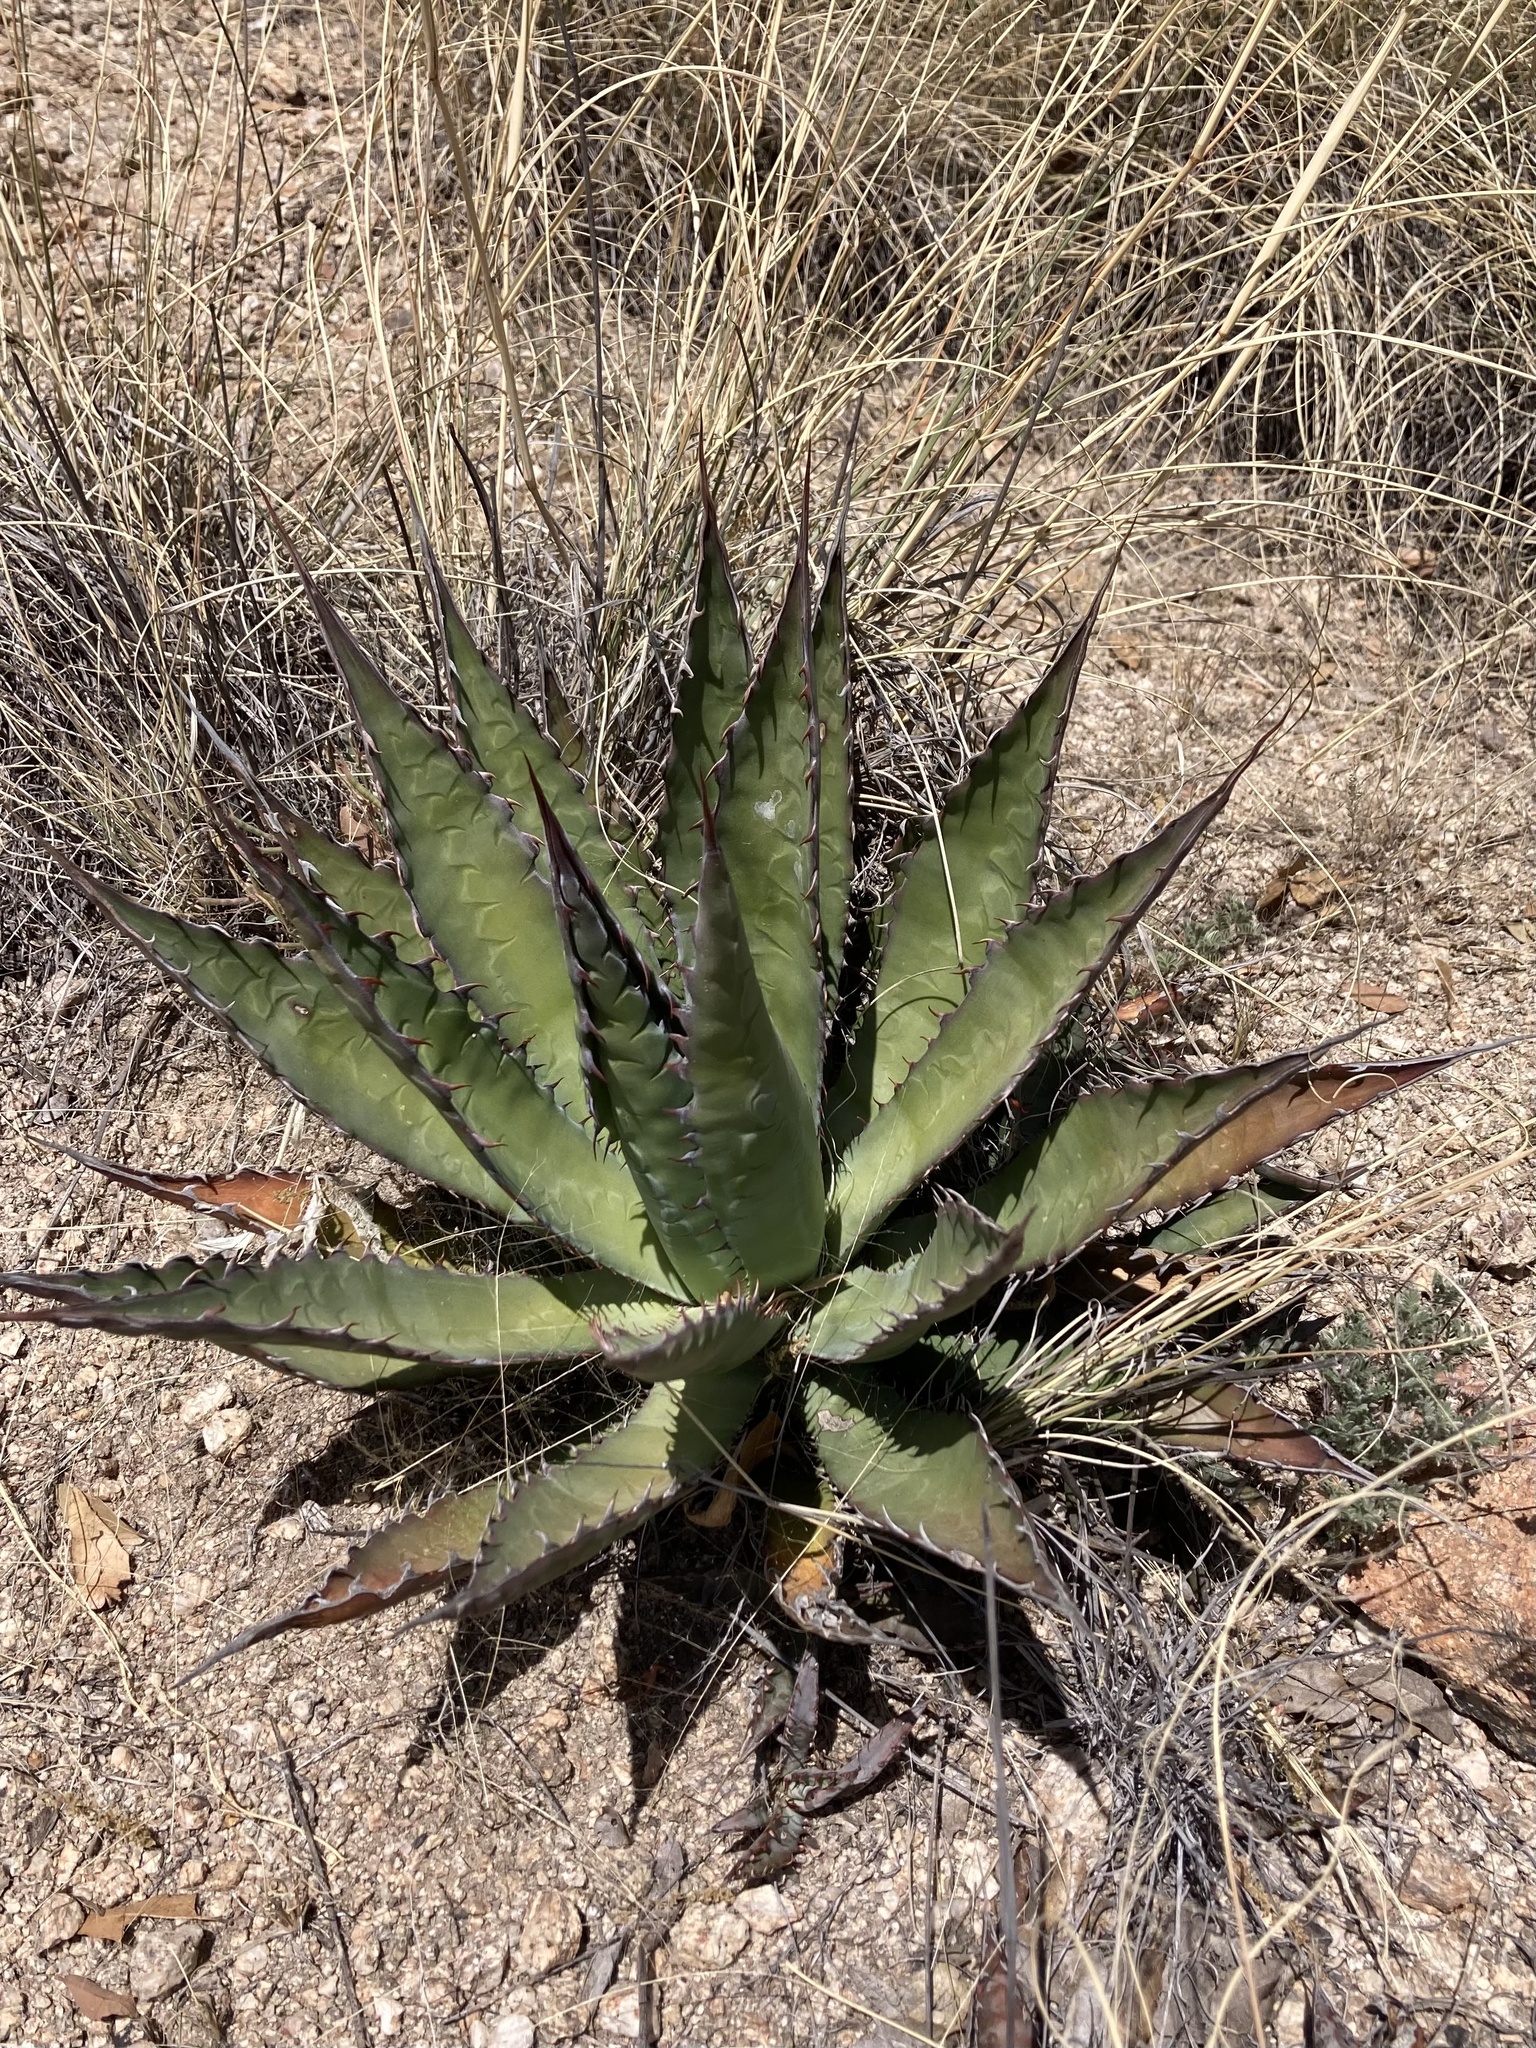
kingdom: Plantae
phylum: Tracheophyta
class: Liliopsida
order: Asparagales
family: Asparagaceae
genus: Agave
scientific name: Agave palmeri
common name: Palmer agave
